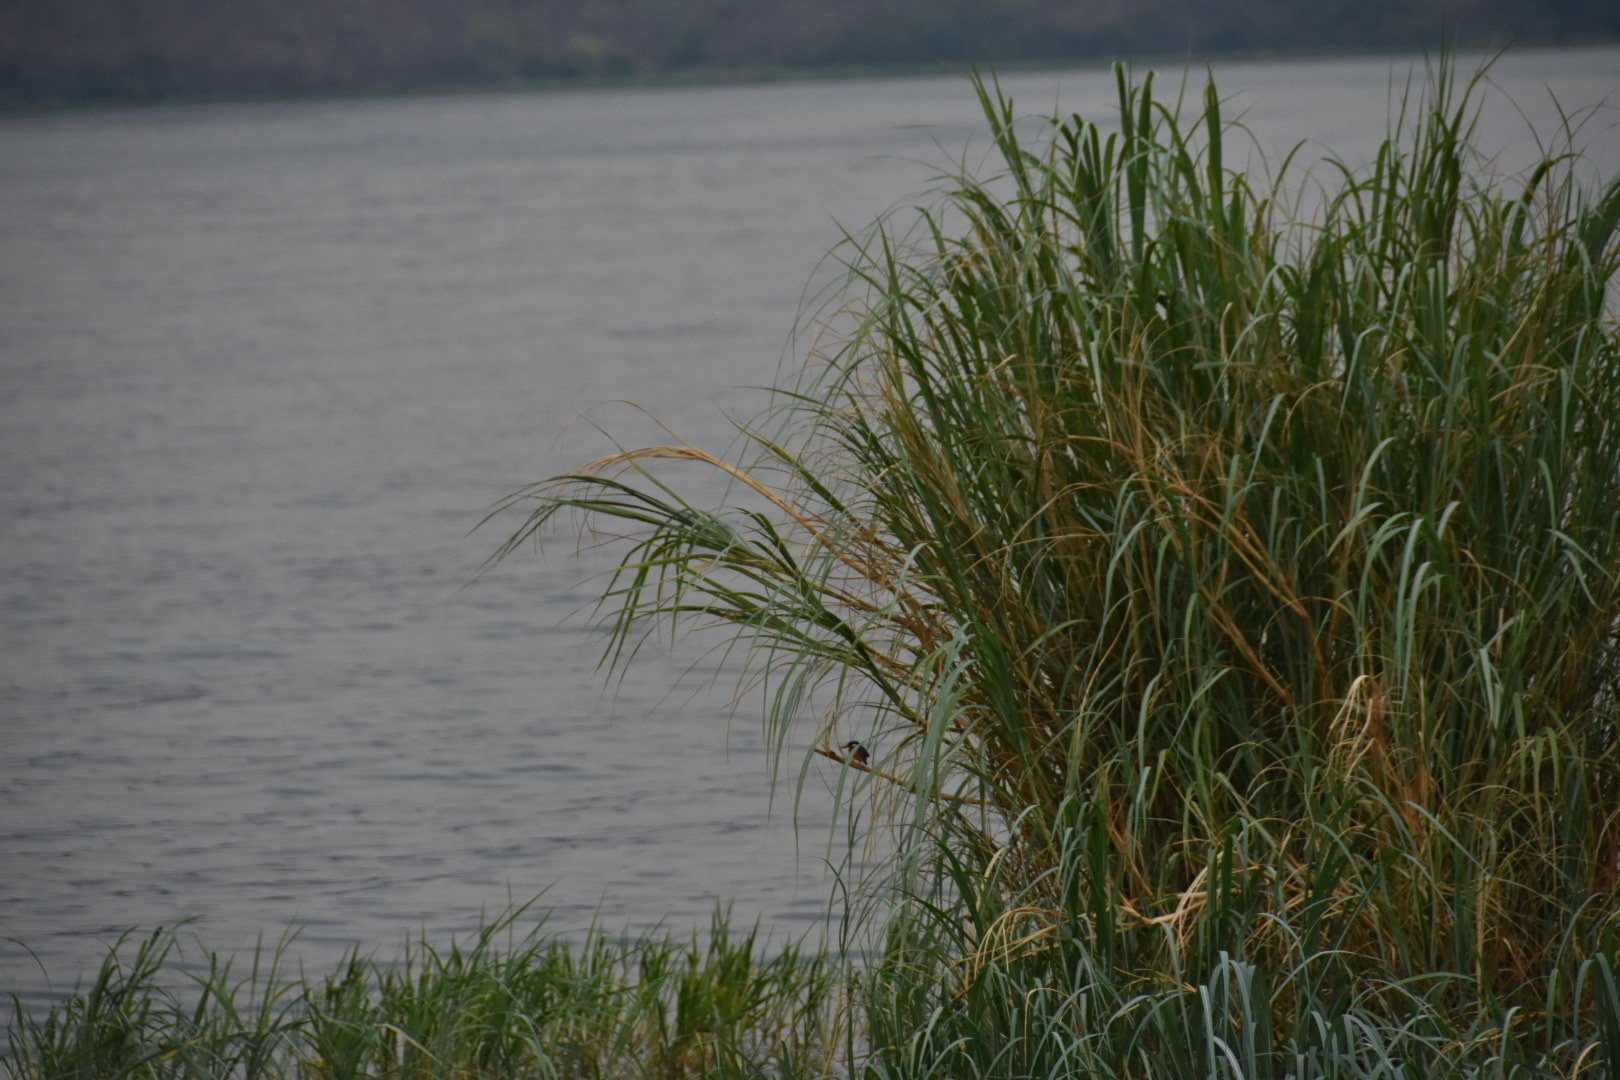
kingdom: Animalia
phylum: Chordata
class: Aves
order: Coraciiformes
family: Alcedinidae
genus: Corythornis
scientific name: Corythornis cristatus
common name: Malachite kingfisher
